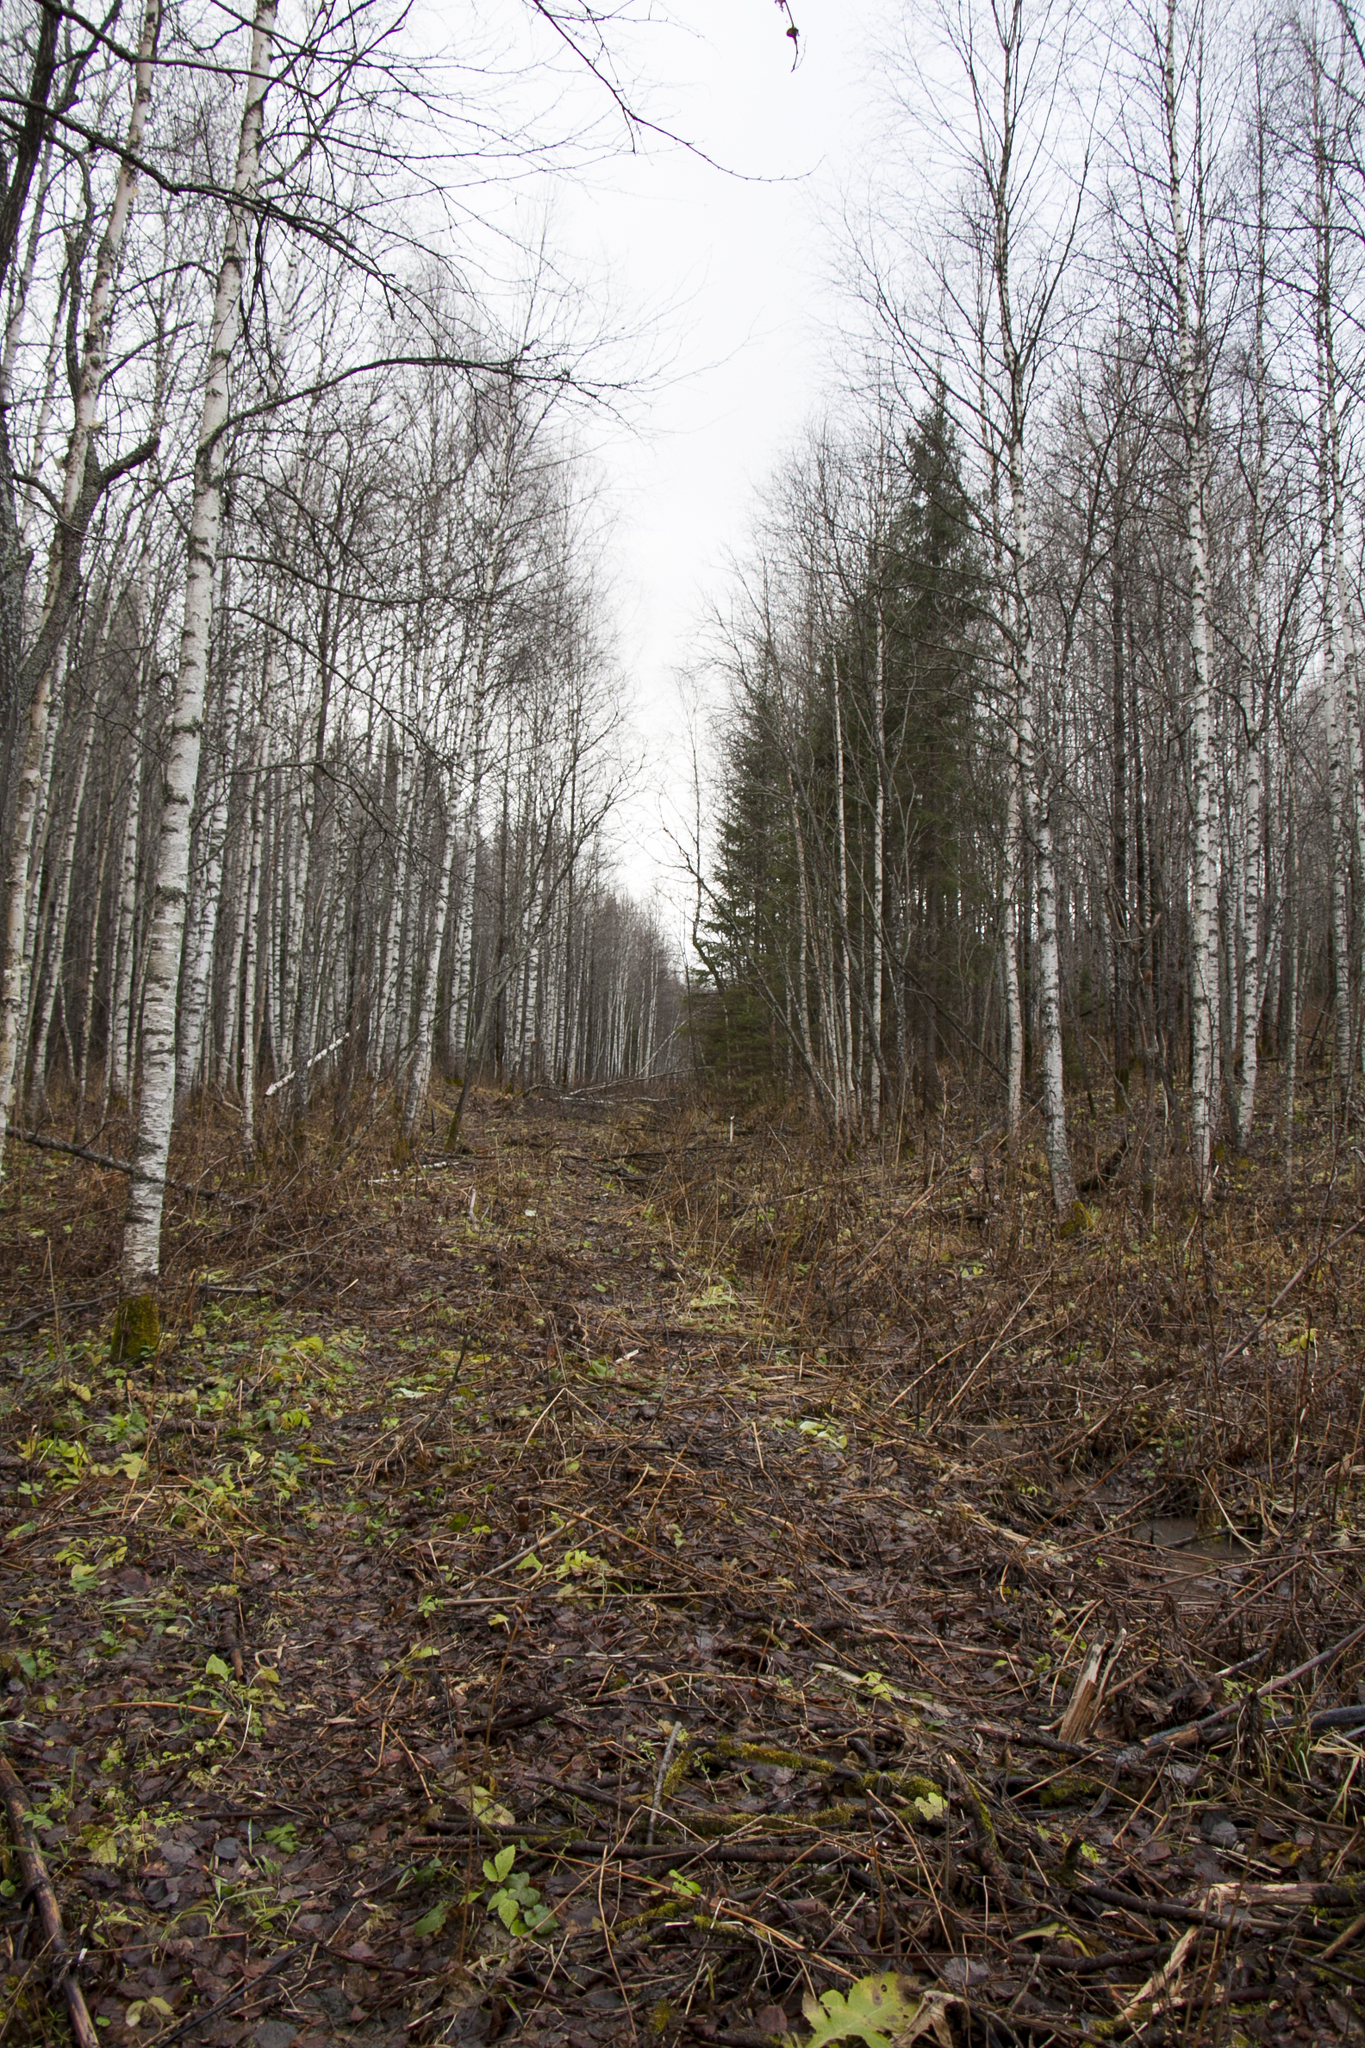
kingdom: Plantae
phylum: Tracheophyta
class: Magnoliopsida
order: Fagales
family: Betulaceae
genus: Betula
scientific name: Betula pendula
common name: Silver birch
